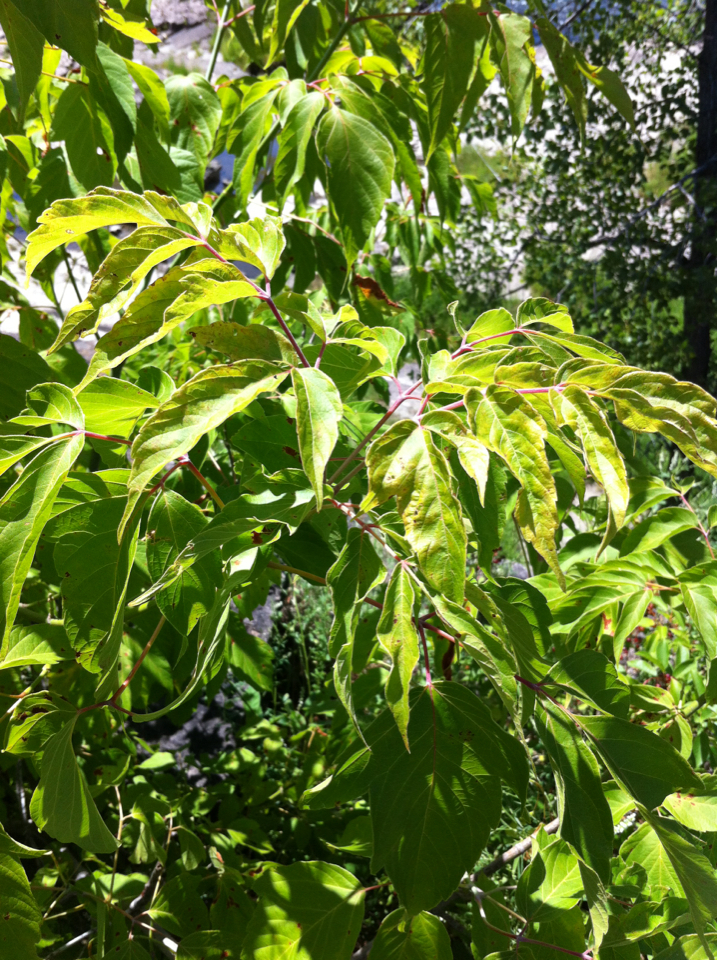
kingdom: Plantae
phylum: Tracheophyta
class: Magnoliopsida
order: Sapindales
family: Sapindaceae
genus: Acer
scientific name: Acer negundo
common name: Ashleaf maple
